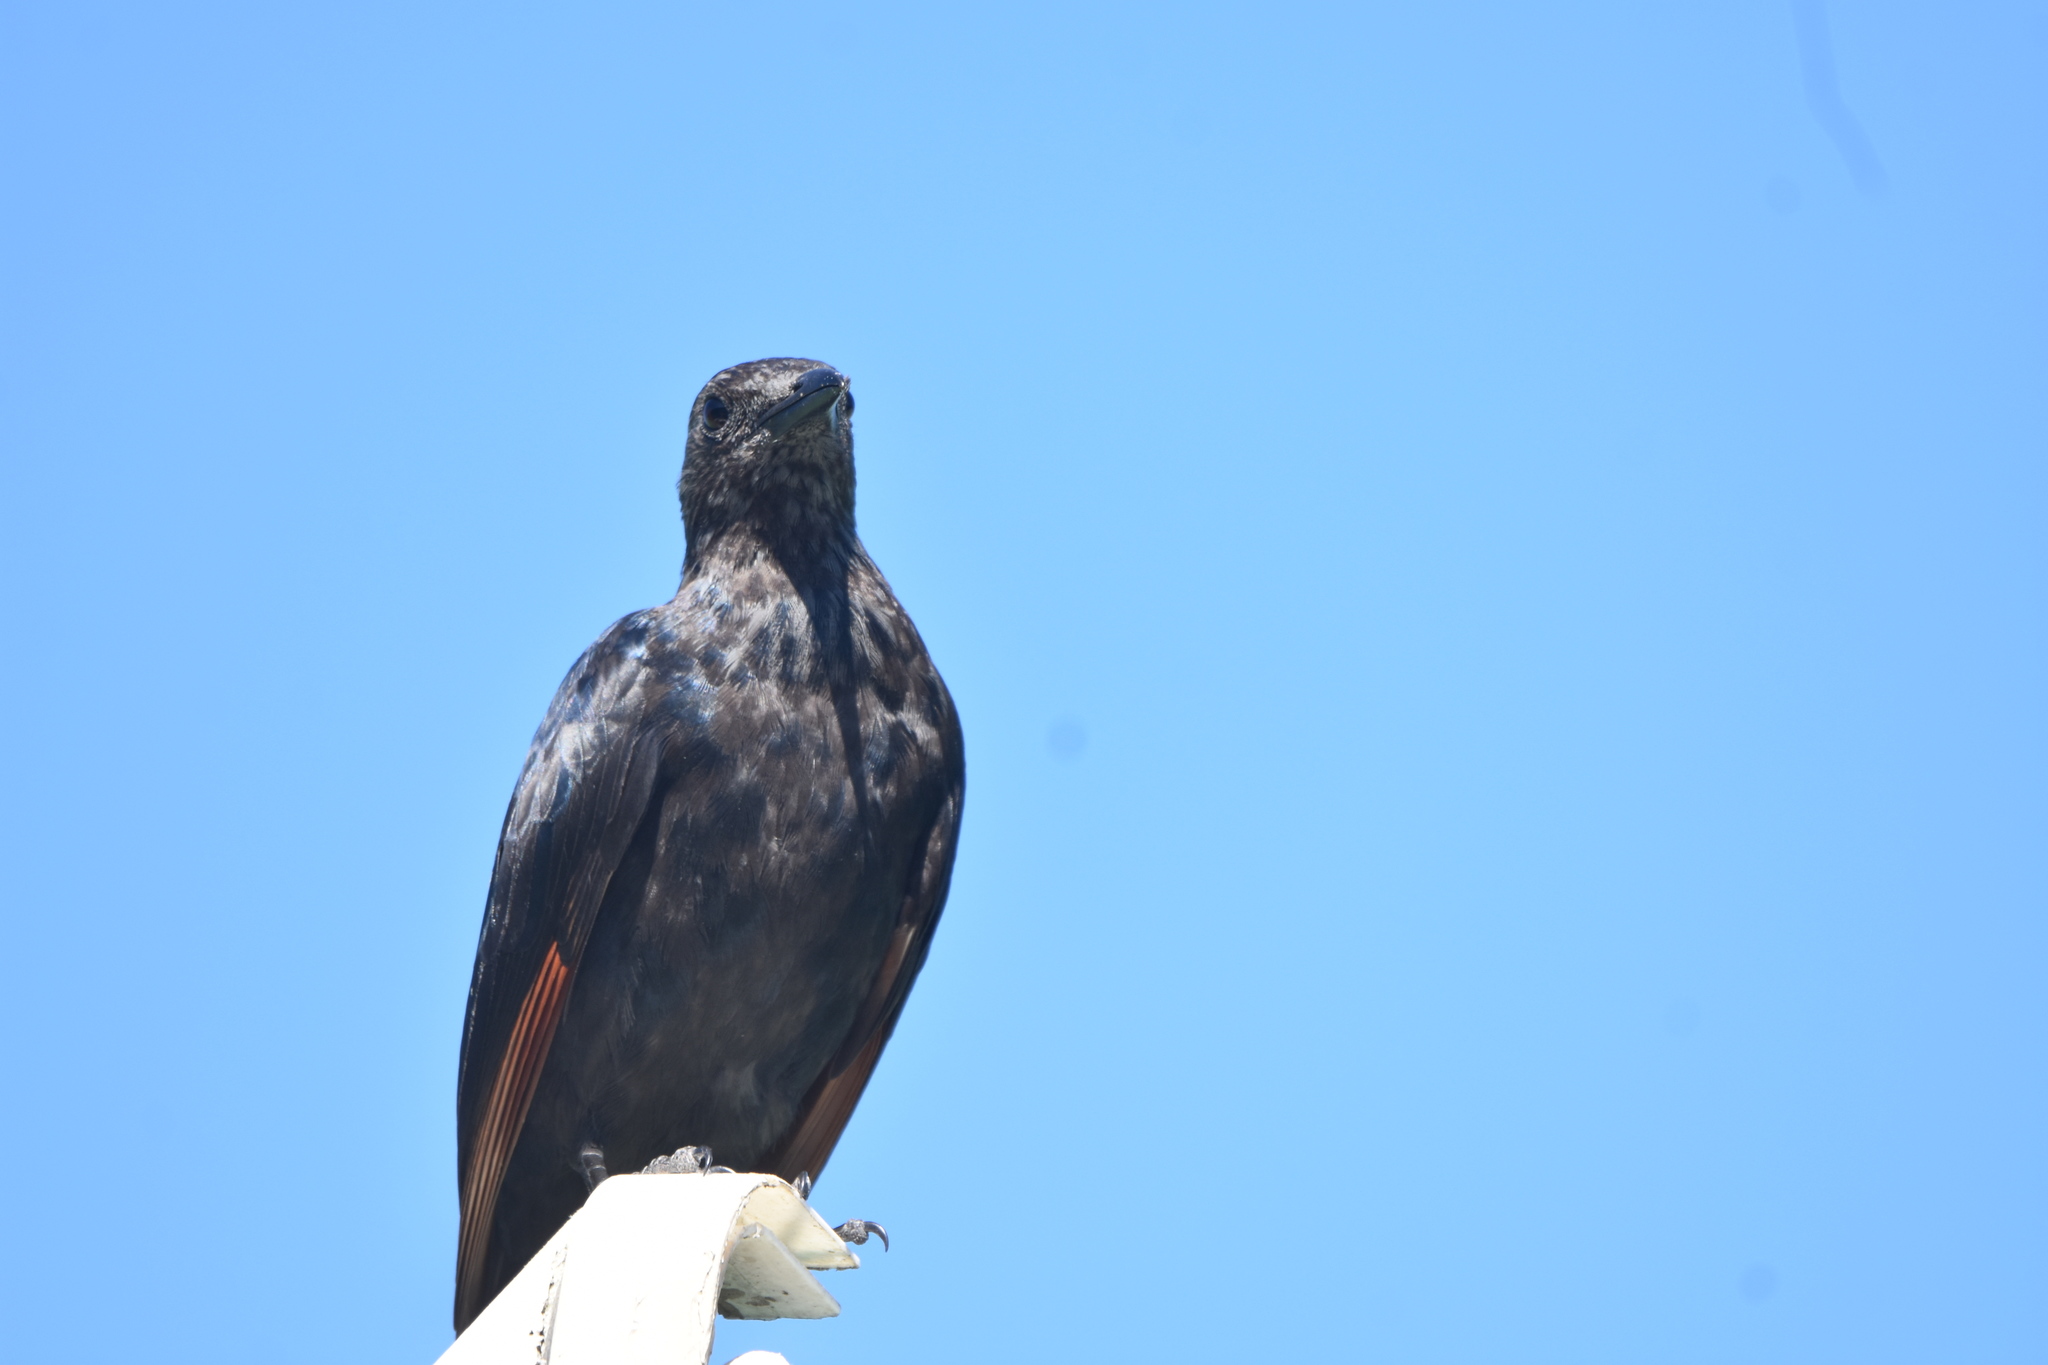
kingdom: Animalia
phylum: Chordata
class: Aves
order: Passeriformes
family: Sturnidae
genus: Onychognathus
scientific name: Onychognathus morio
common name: Red-winged starling
